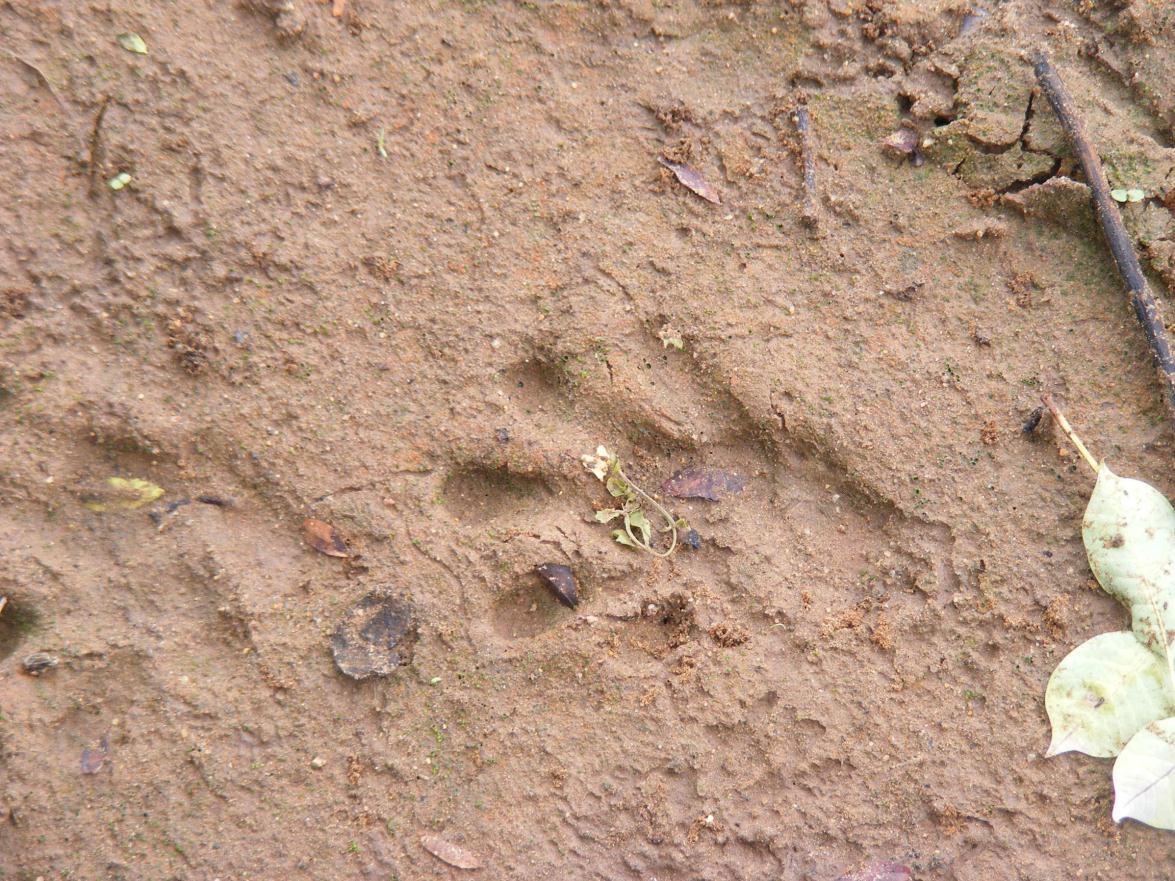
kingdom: Animalia
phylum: Chordata
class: Mammalia
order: Carnivora
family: Mustelidae
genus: Aonyx
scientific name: Aonyx capensis
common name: African clawless otter
